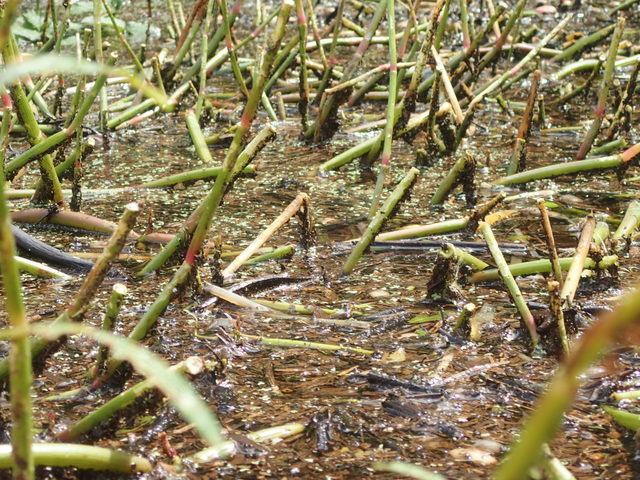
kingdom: Plantae
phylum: Tracheophyta
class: Magnoliopsida
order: Caryophyllales
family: Amaranthaceae
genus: Alternanthera
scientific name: Alternanthera philoxeroides
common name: Alligatorweed
